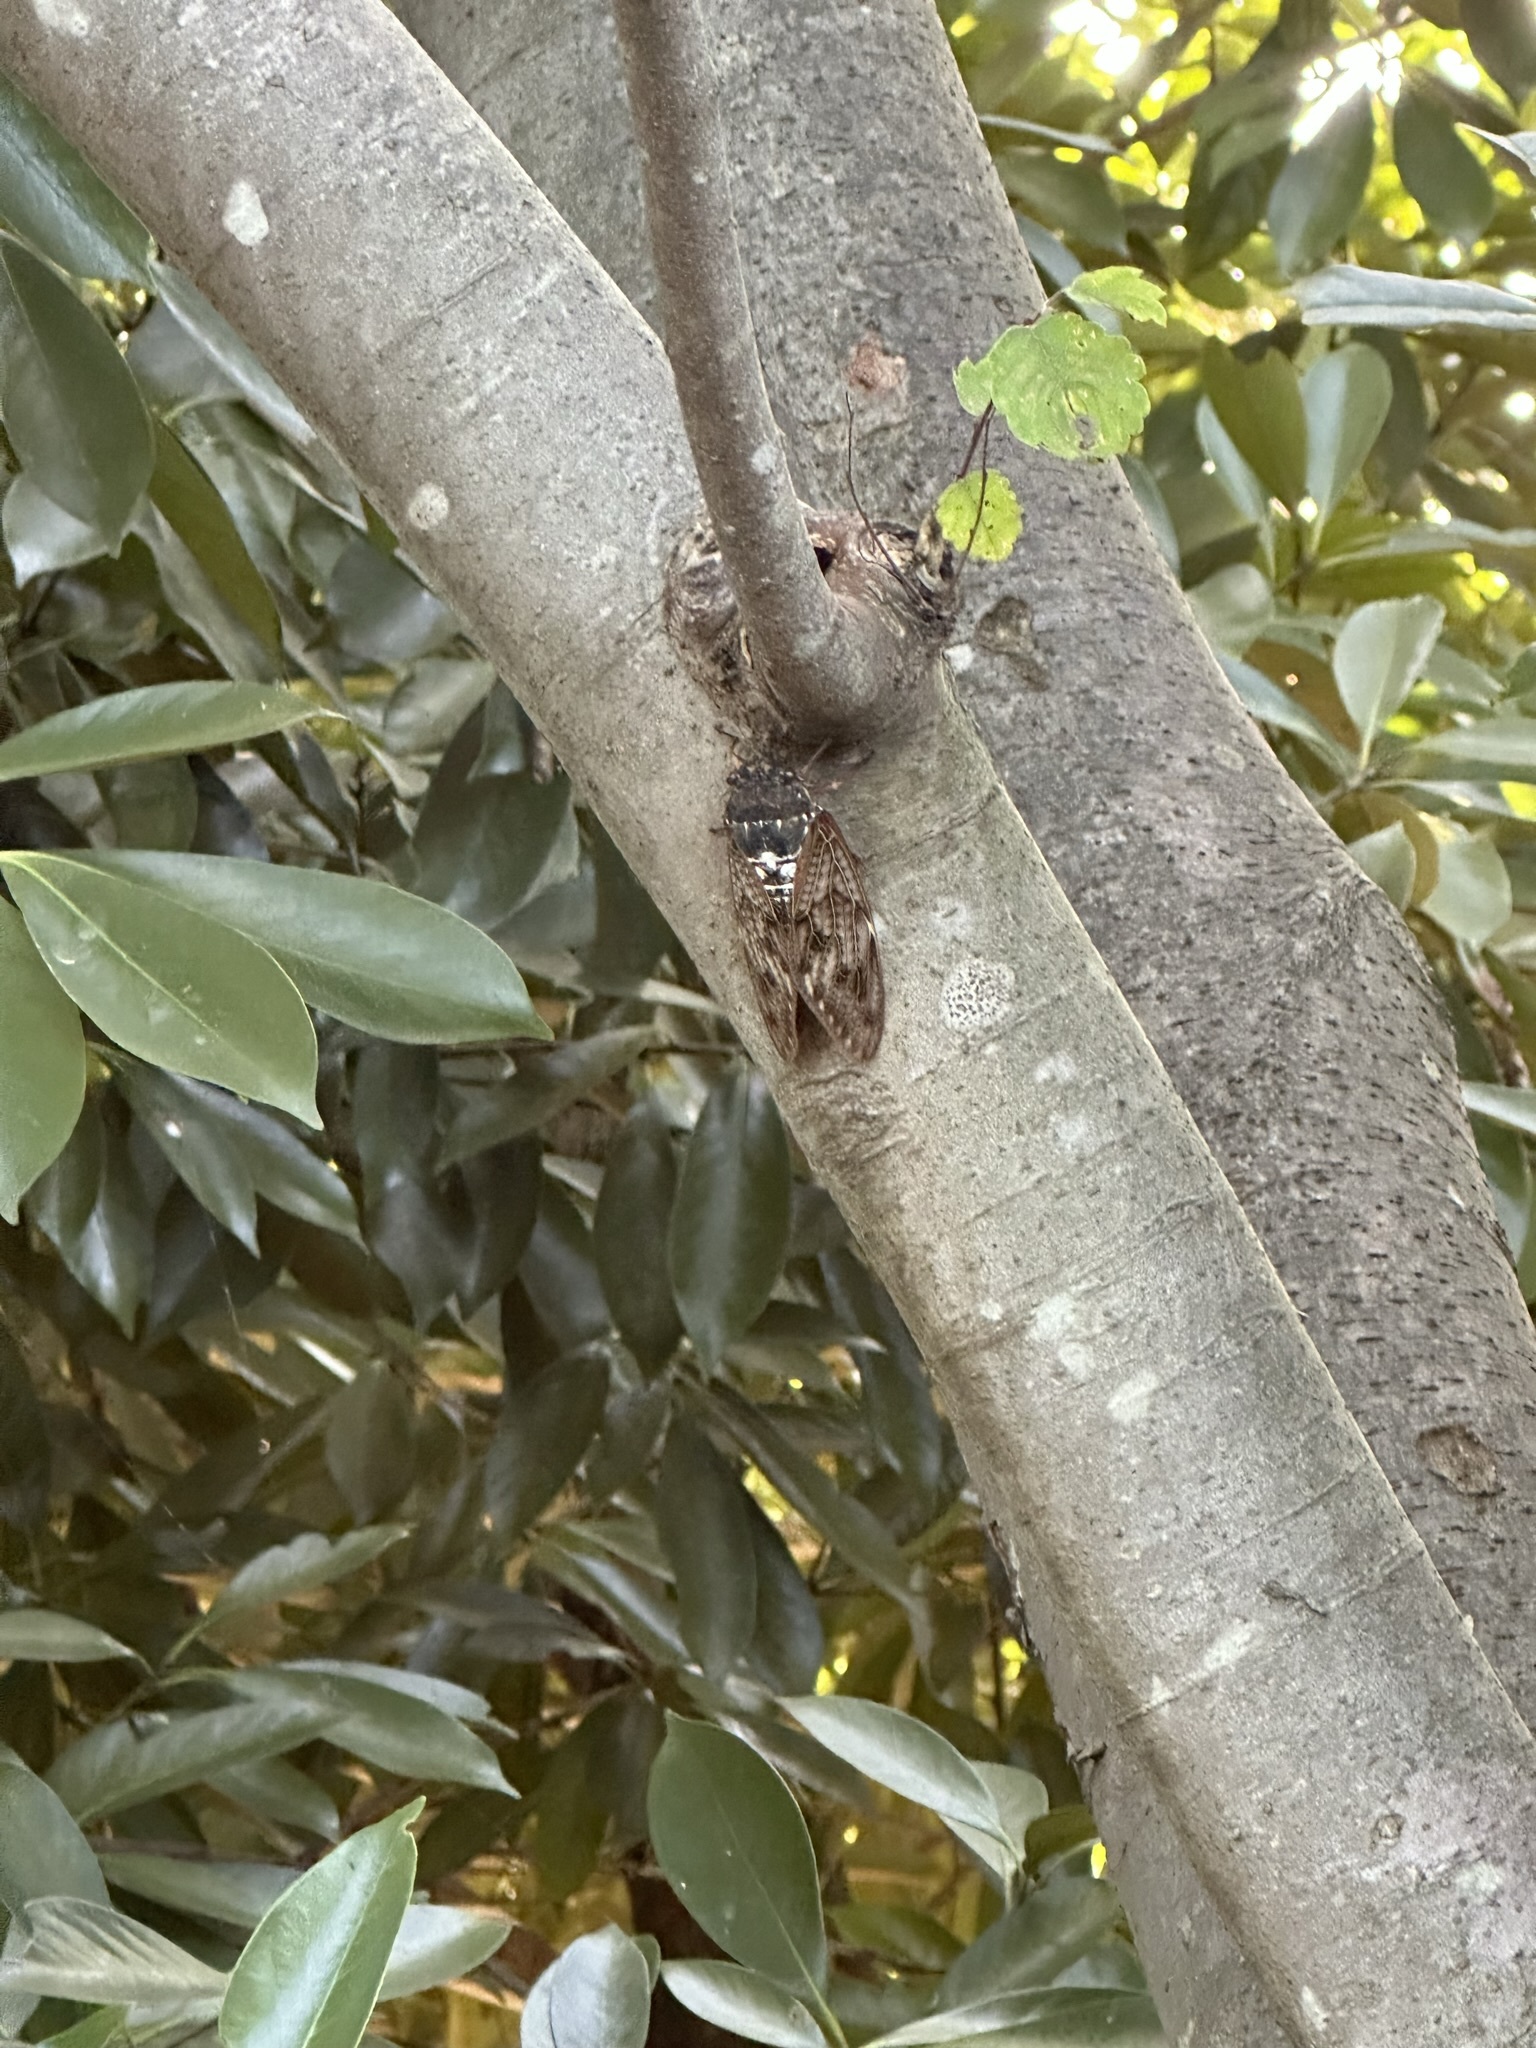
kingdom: Animalia
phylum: Arthropoda
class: Insecta
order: Hemiptera
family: Cicadidae
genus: Graptopsaltria
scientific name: Graptopsaltria nigrofuscata
